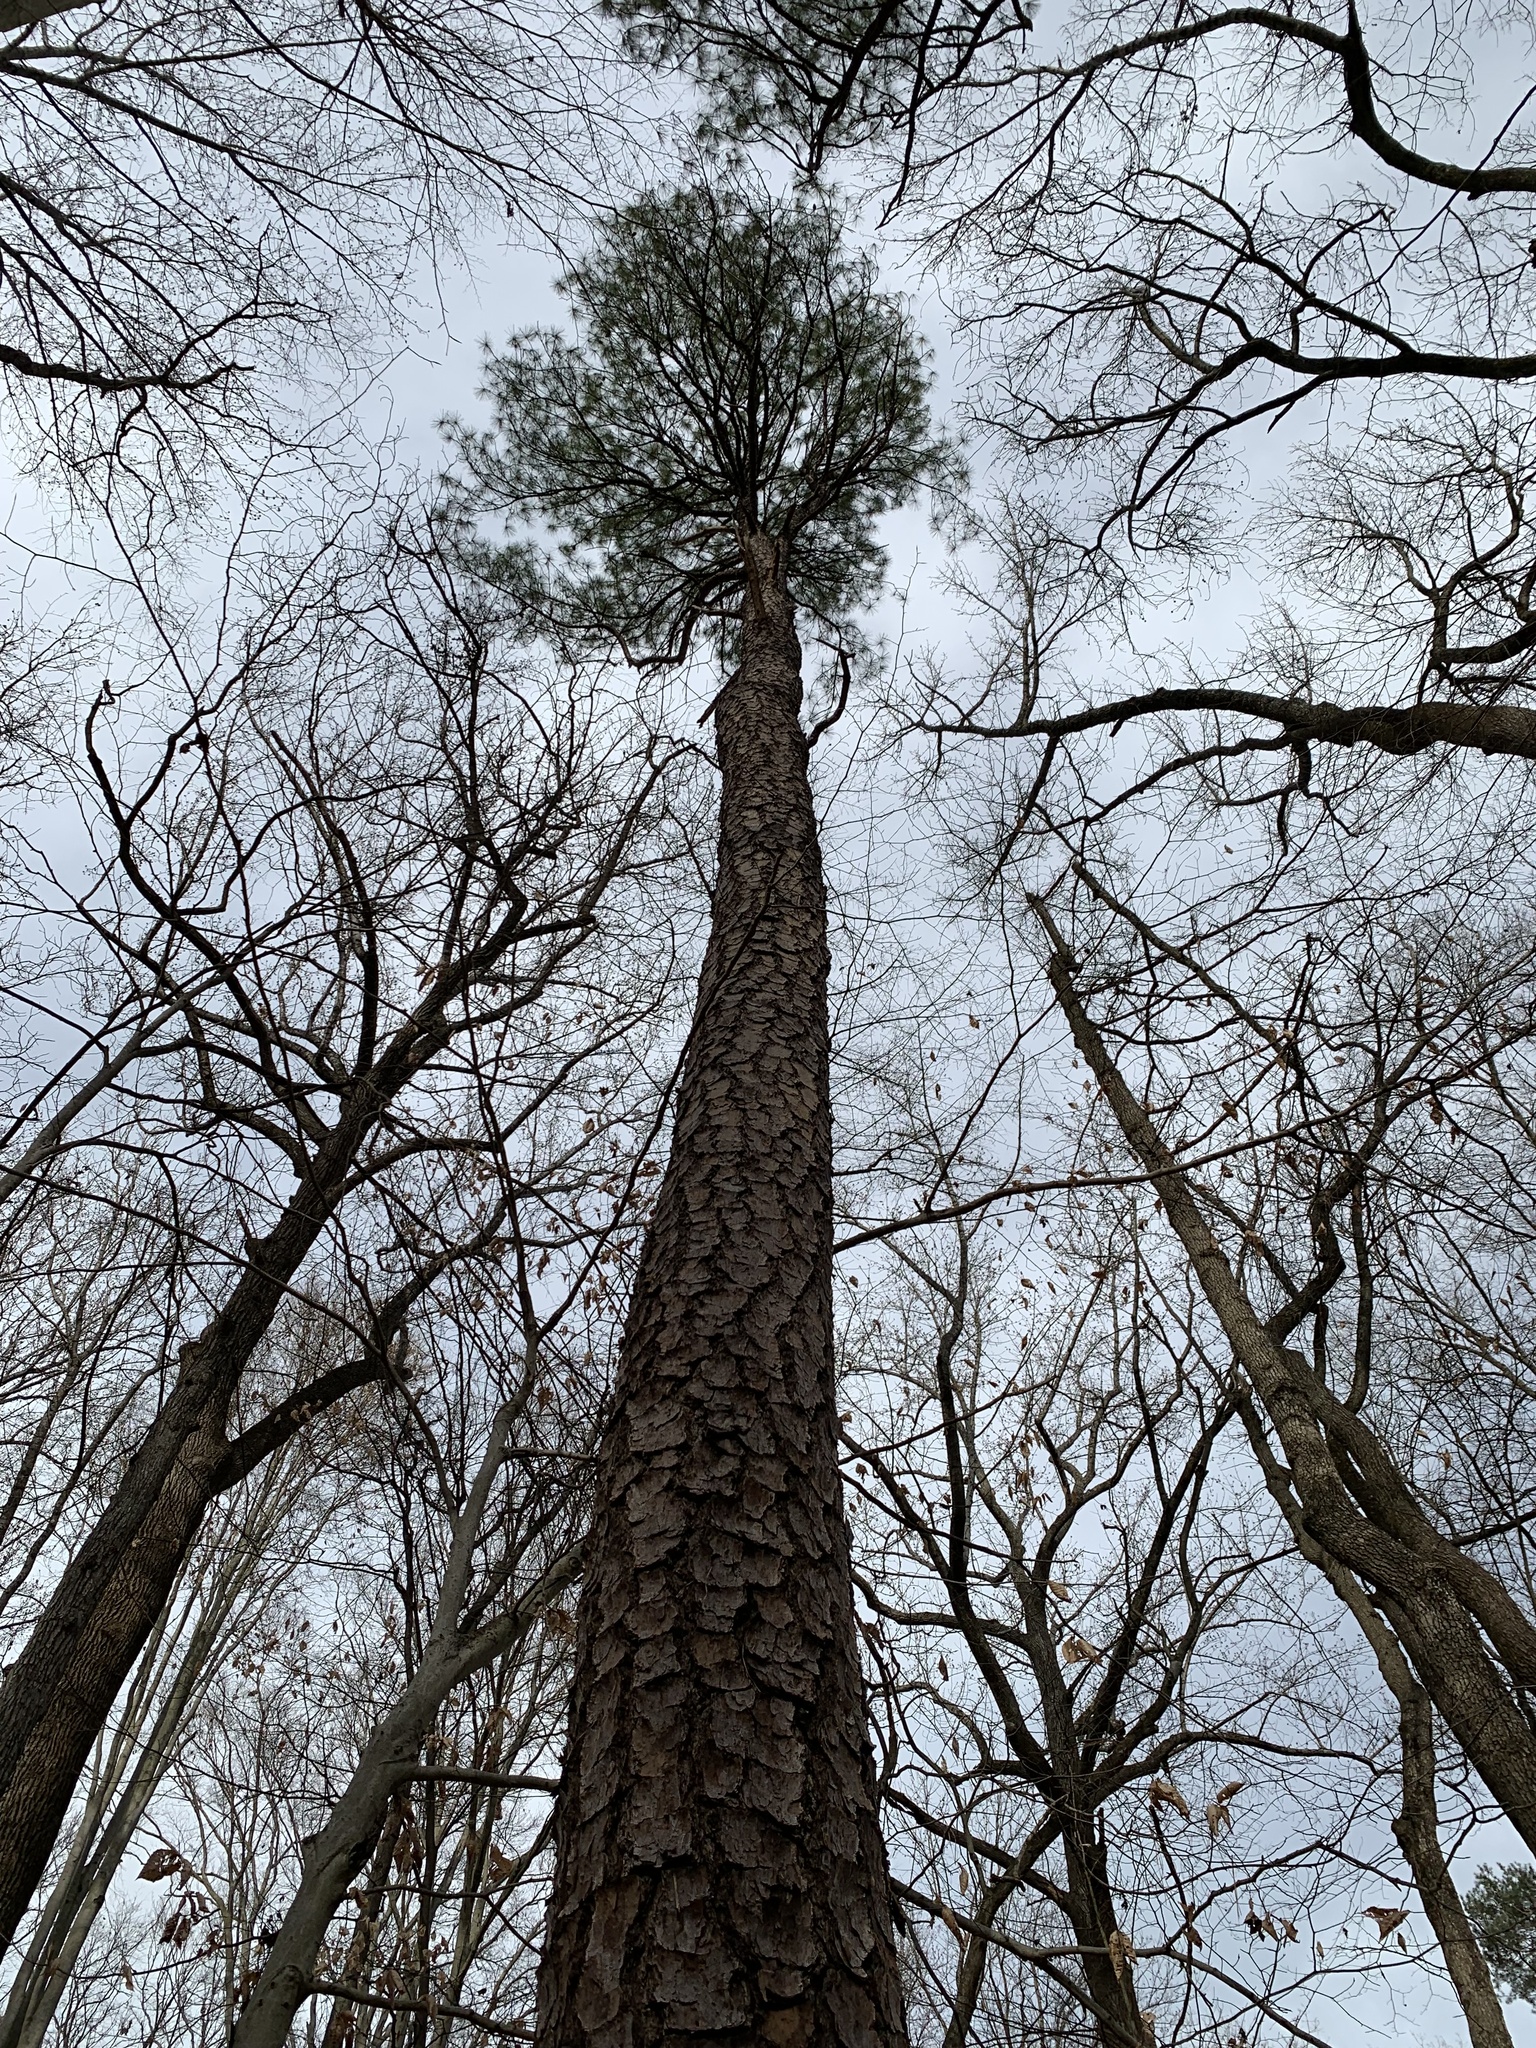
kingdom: Plantae
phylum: Tracheophyta
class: Pinopsida
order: Pinales
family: Pinaceae
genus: Pinus
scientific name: Pinus taeda
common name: Loblolly pine
